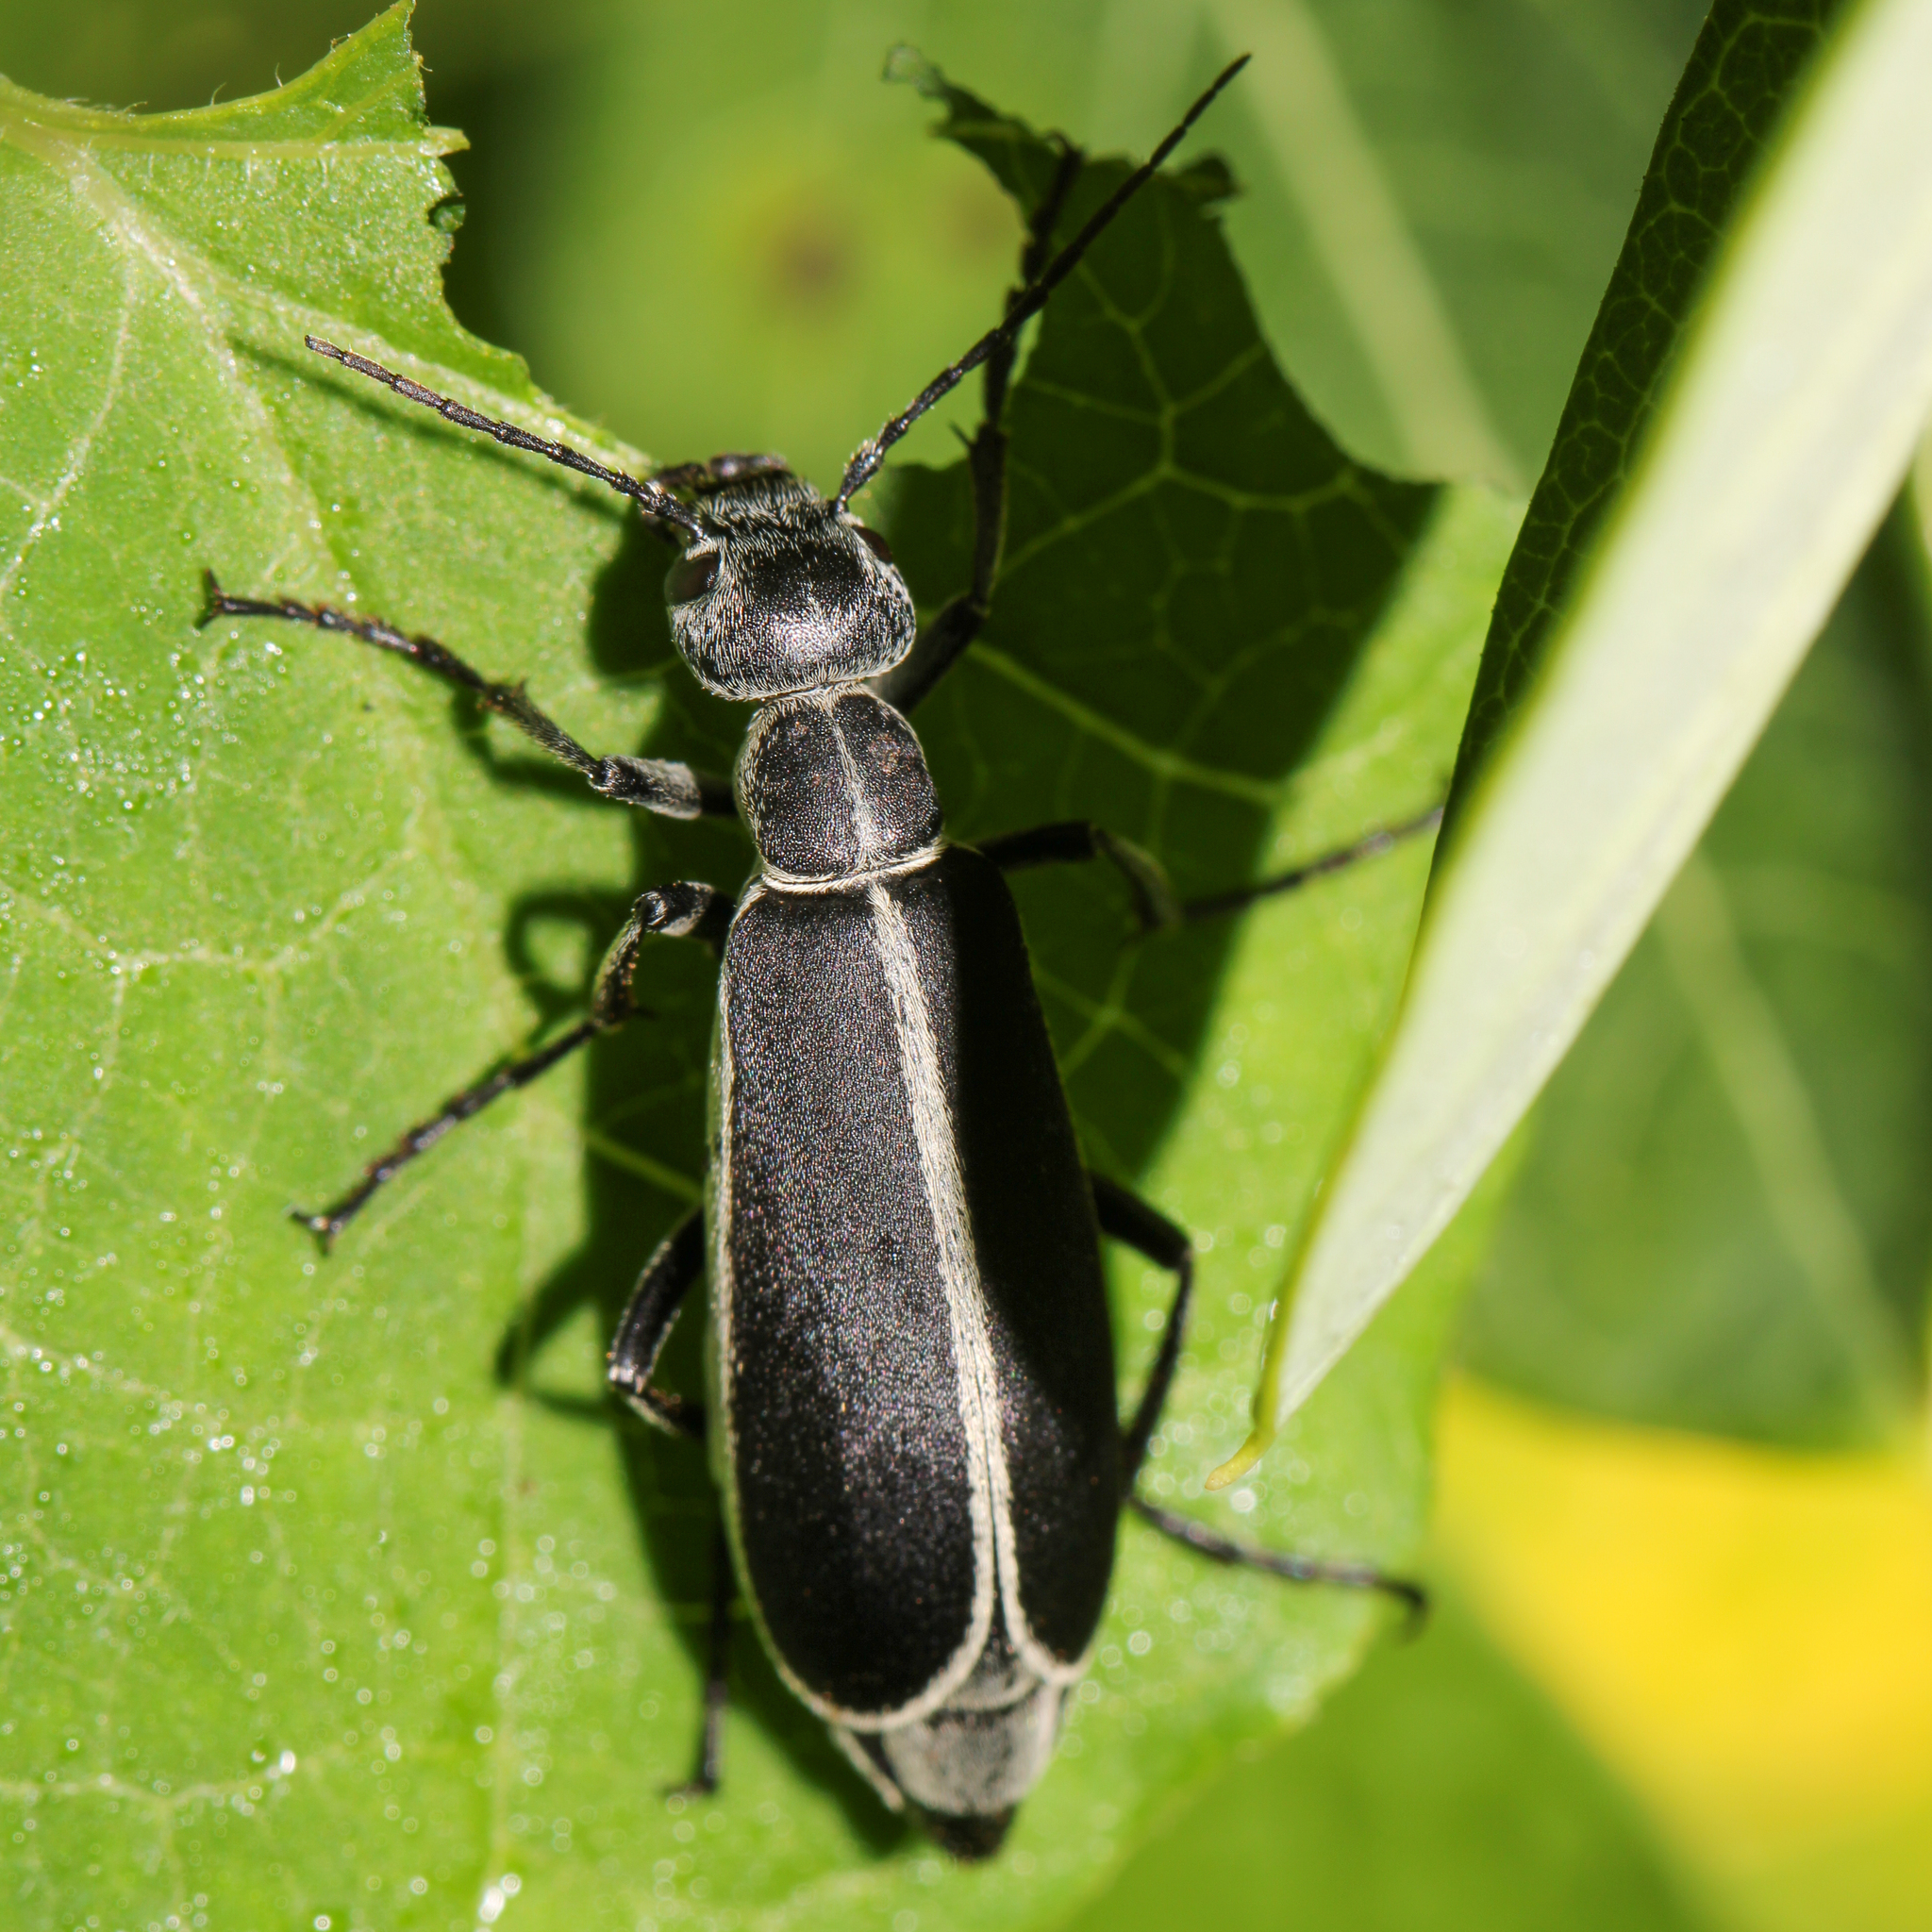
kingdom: Animalia
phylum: Arthropoda
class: Insecta
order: Coleoptera
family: Meloidae
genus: Epicauta
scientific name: Epicauta funebris
